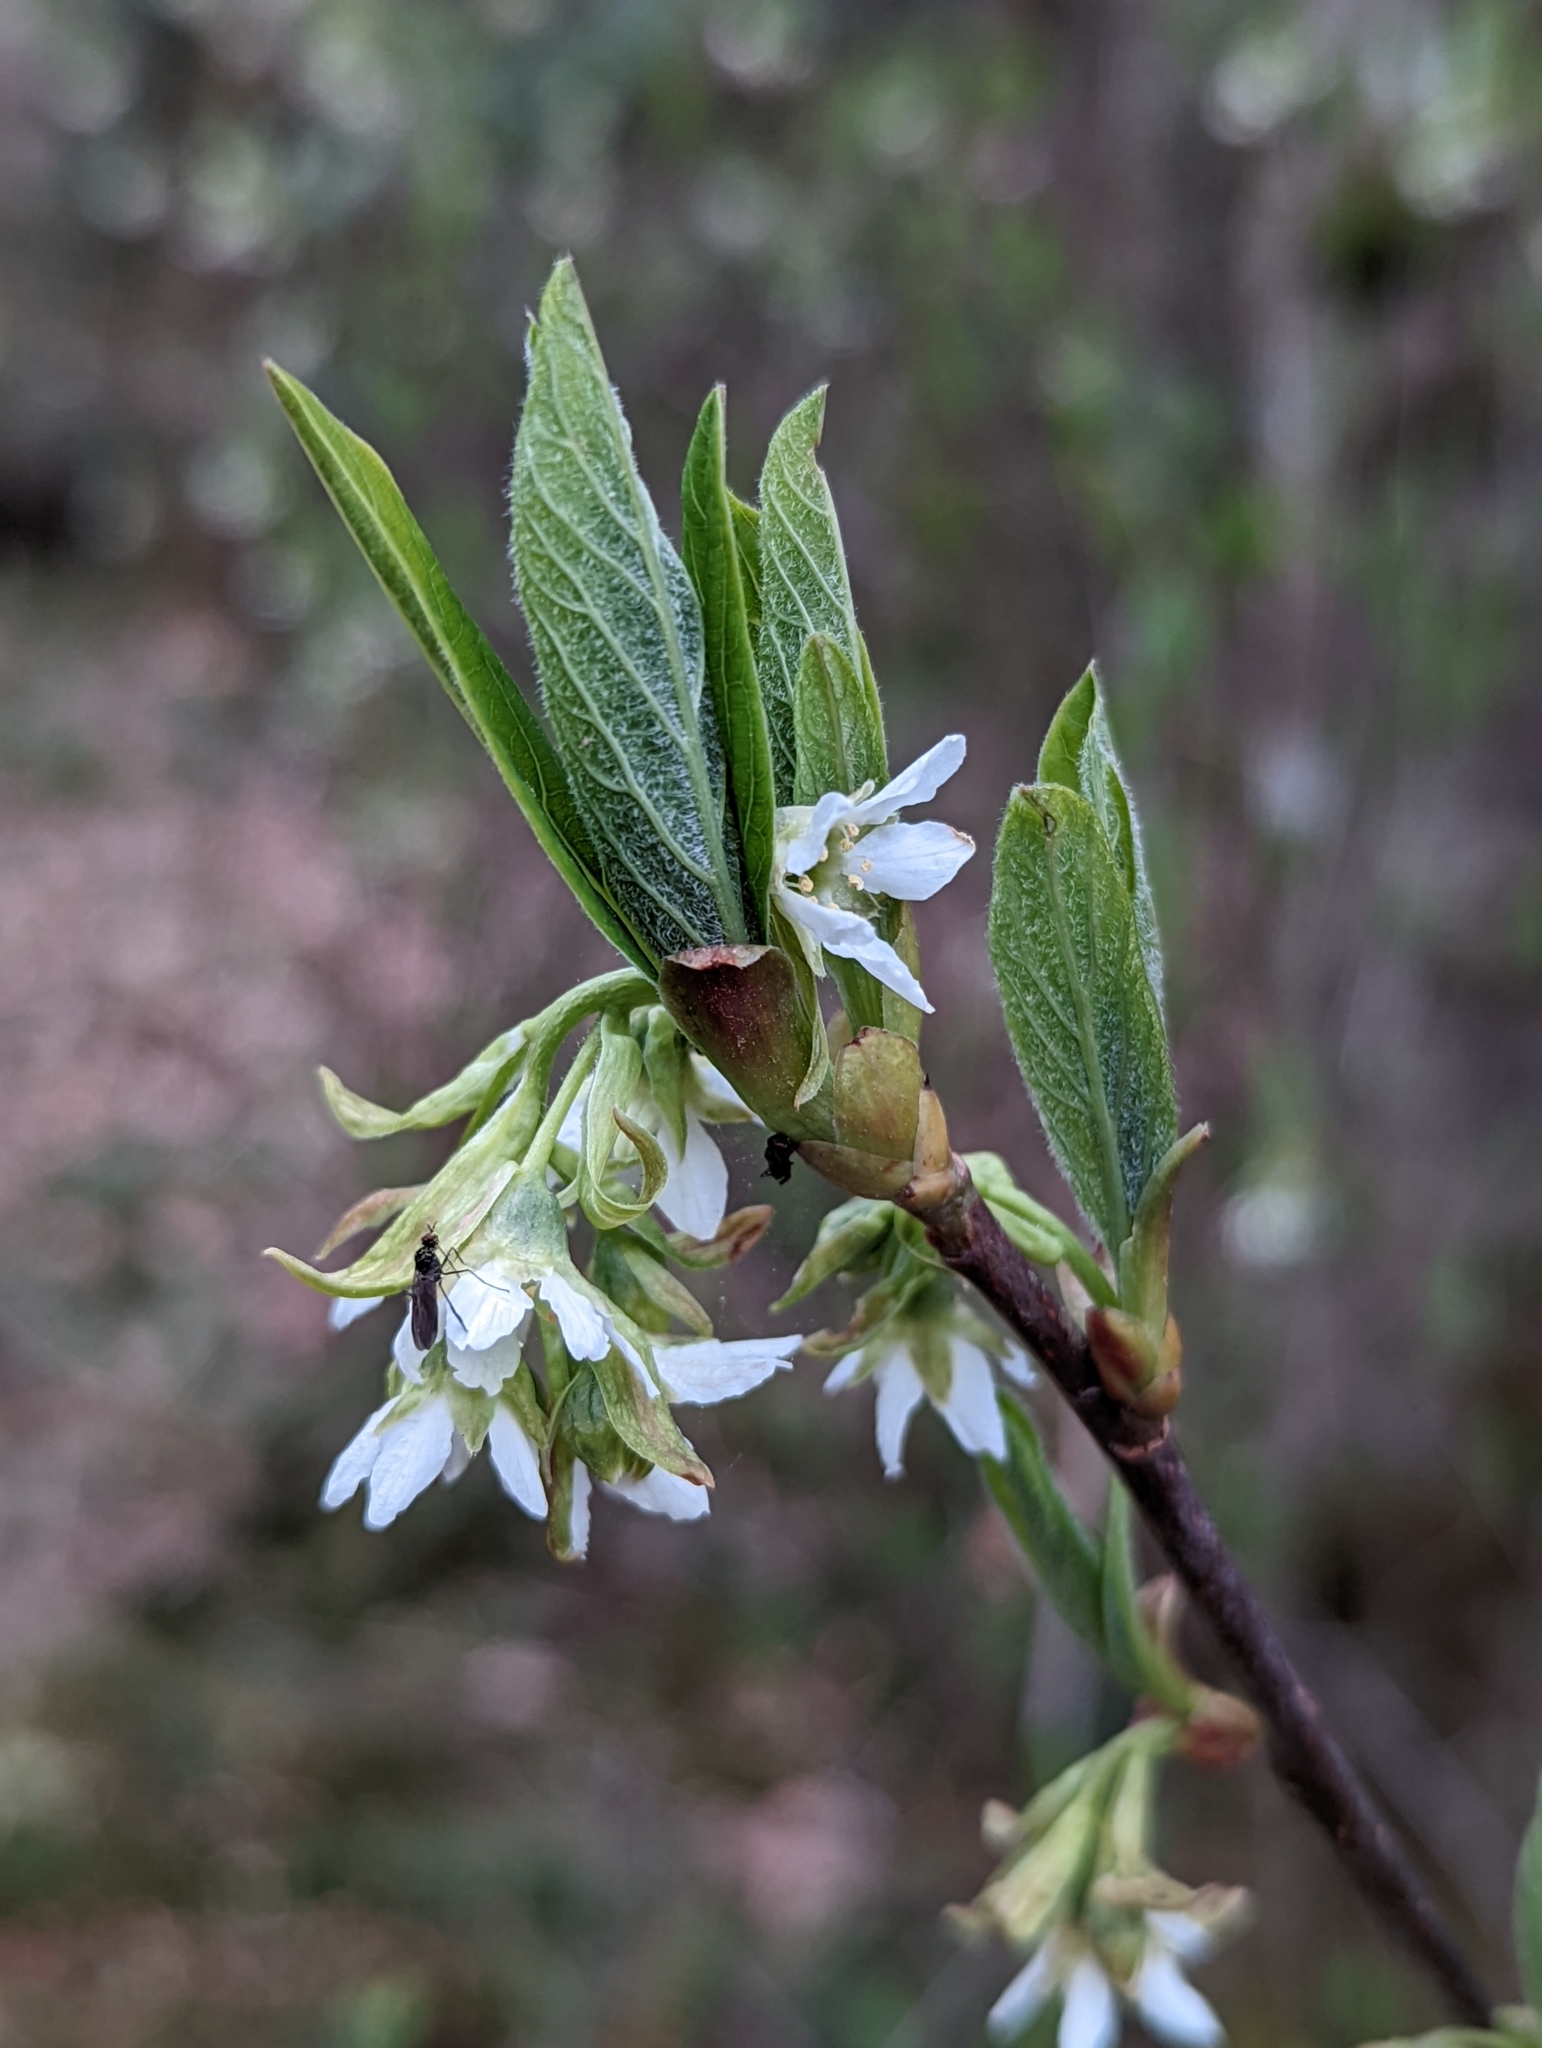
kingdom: Plantae
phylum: Tracheophyta
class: Magnoliopsida
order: Rosales
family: Rosaceae
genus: Oemleria
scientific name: Oemleria cerasiformis
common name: Osoberry
